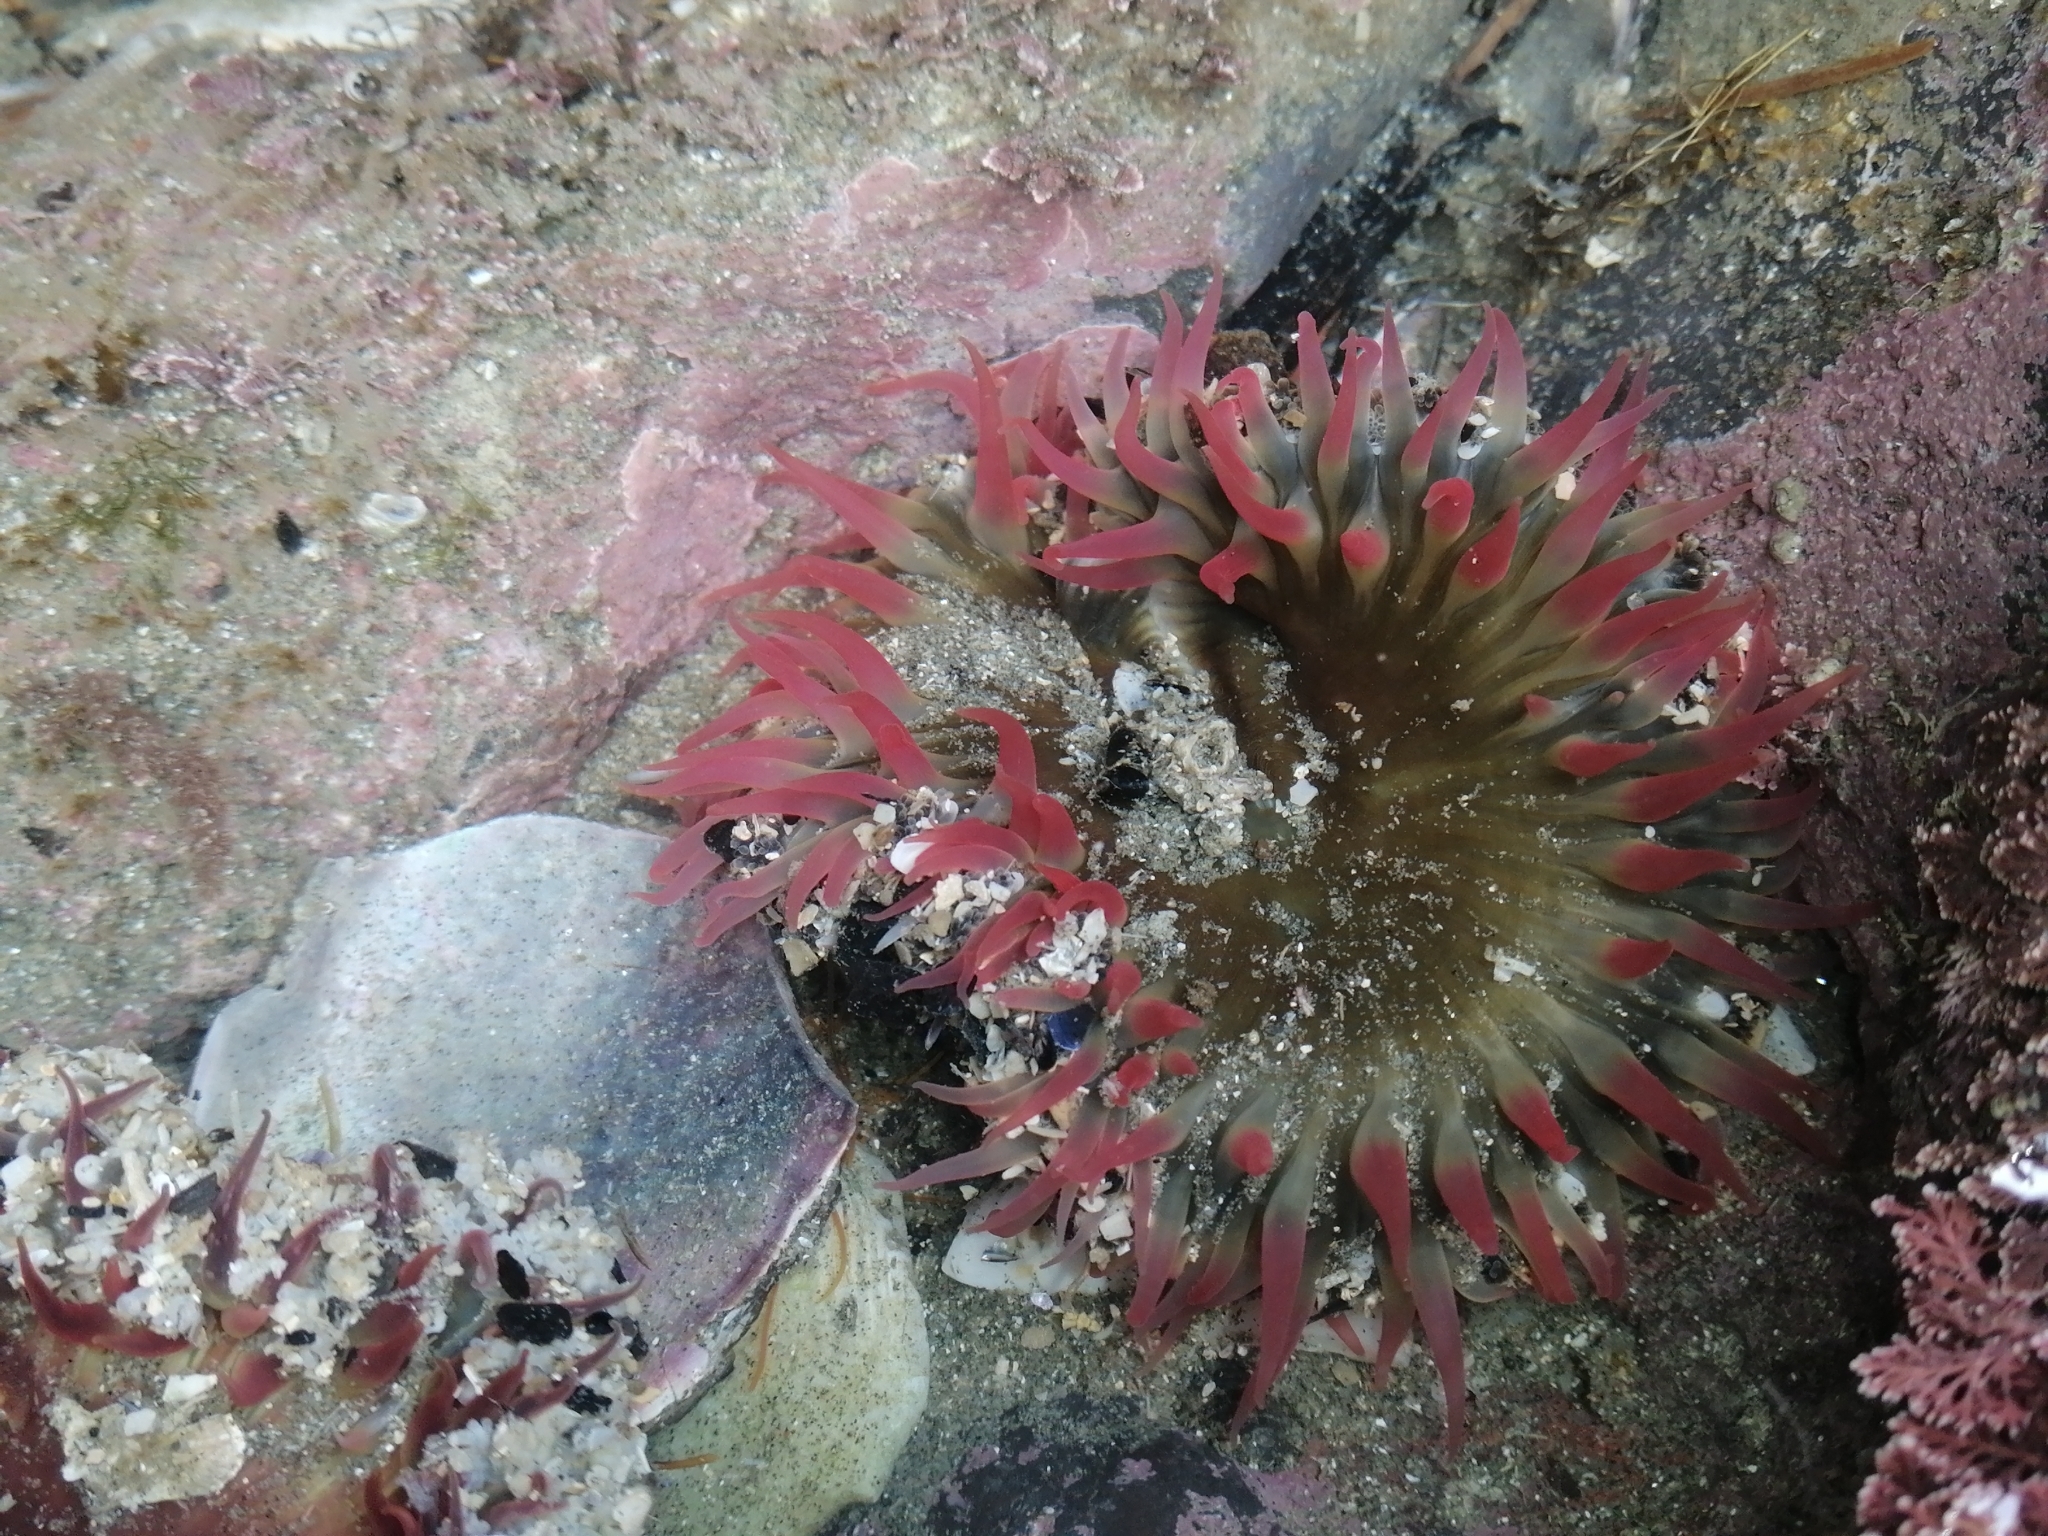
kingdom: Animalia
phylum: Cnidaria
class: Anthozoa
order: Actiniaria
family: Actiniidae
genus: Oulactis
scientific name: Oulactis magna
